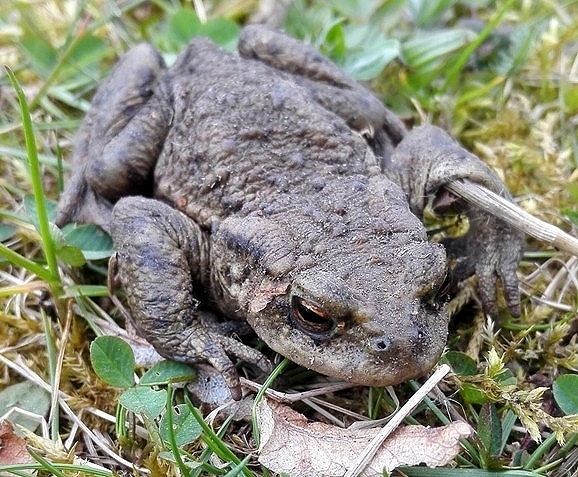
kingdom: Animalia
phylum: Chordata
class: Amphibia
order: Anura
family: Bufonidae
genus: Bufo
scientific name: Bufo bufo
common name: Common toad
